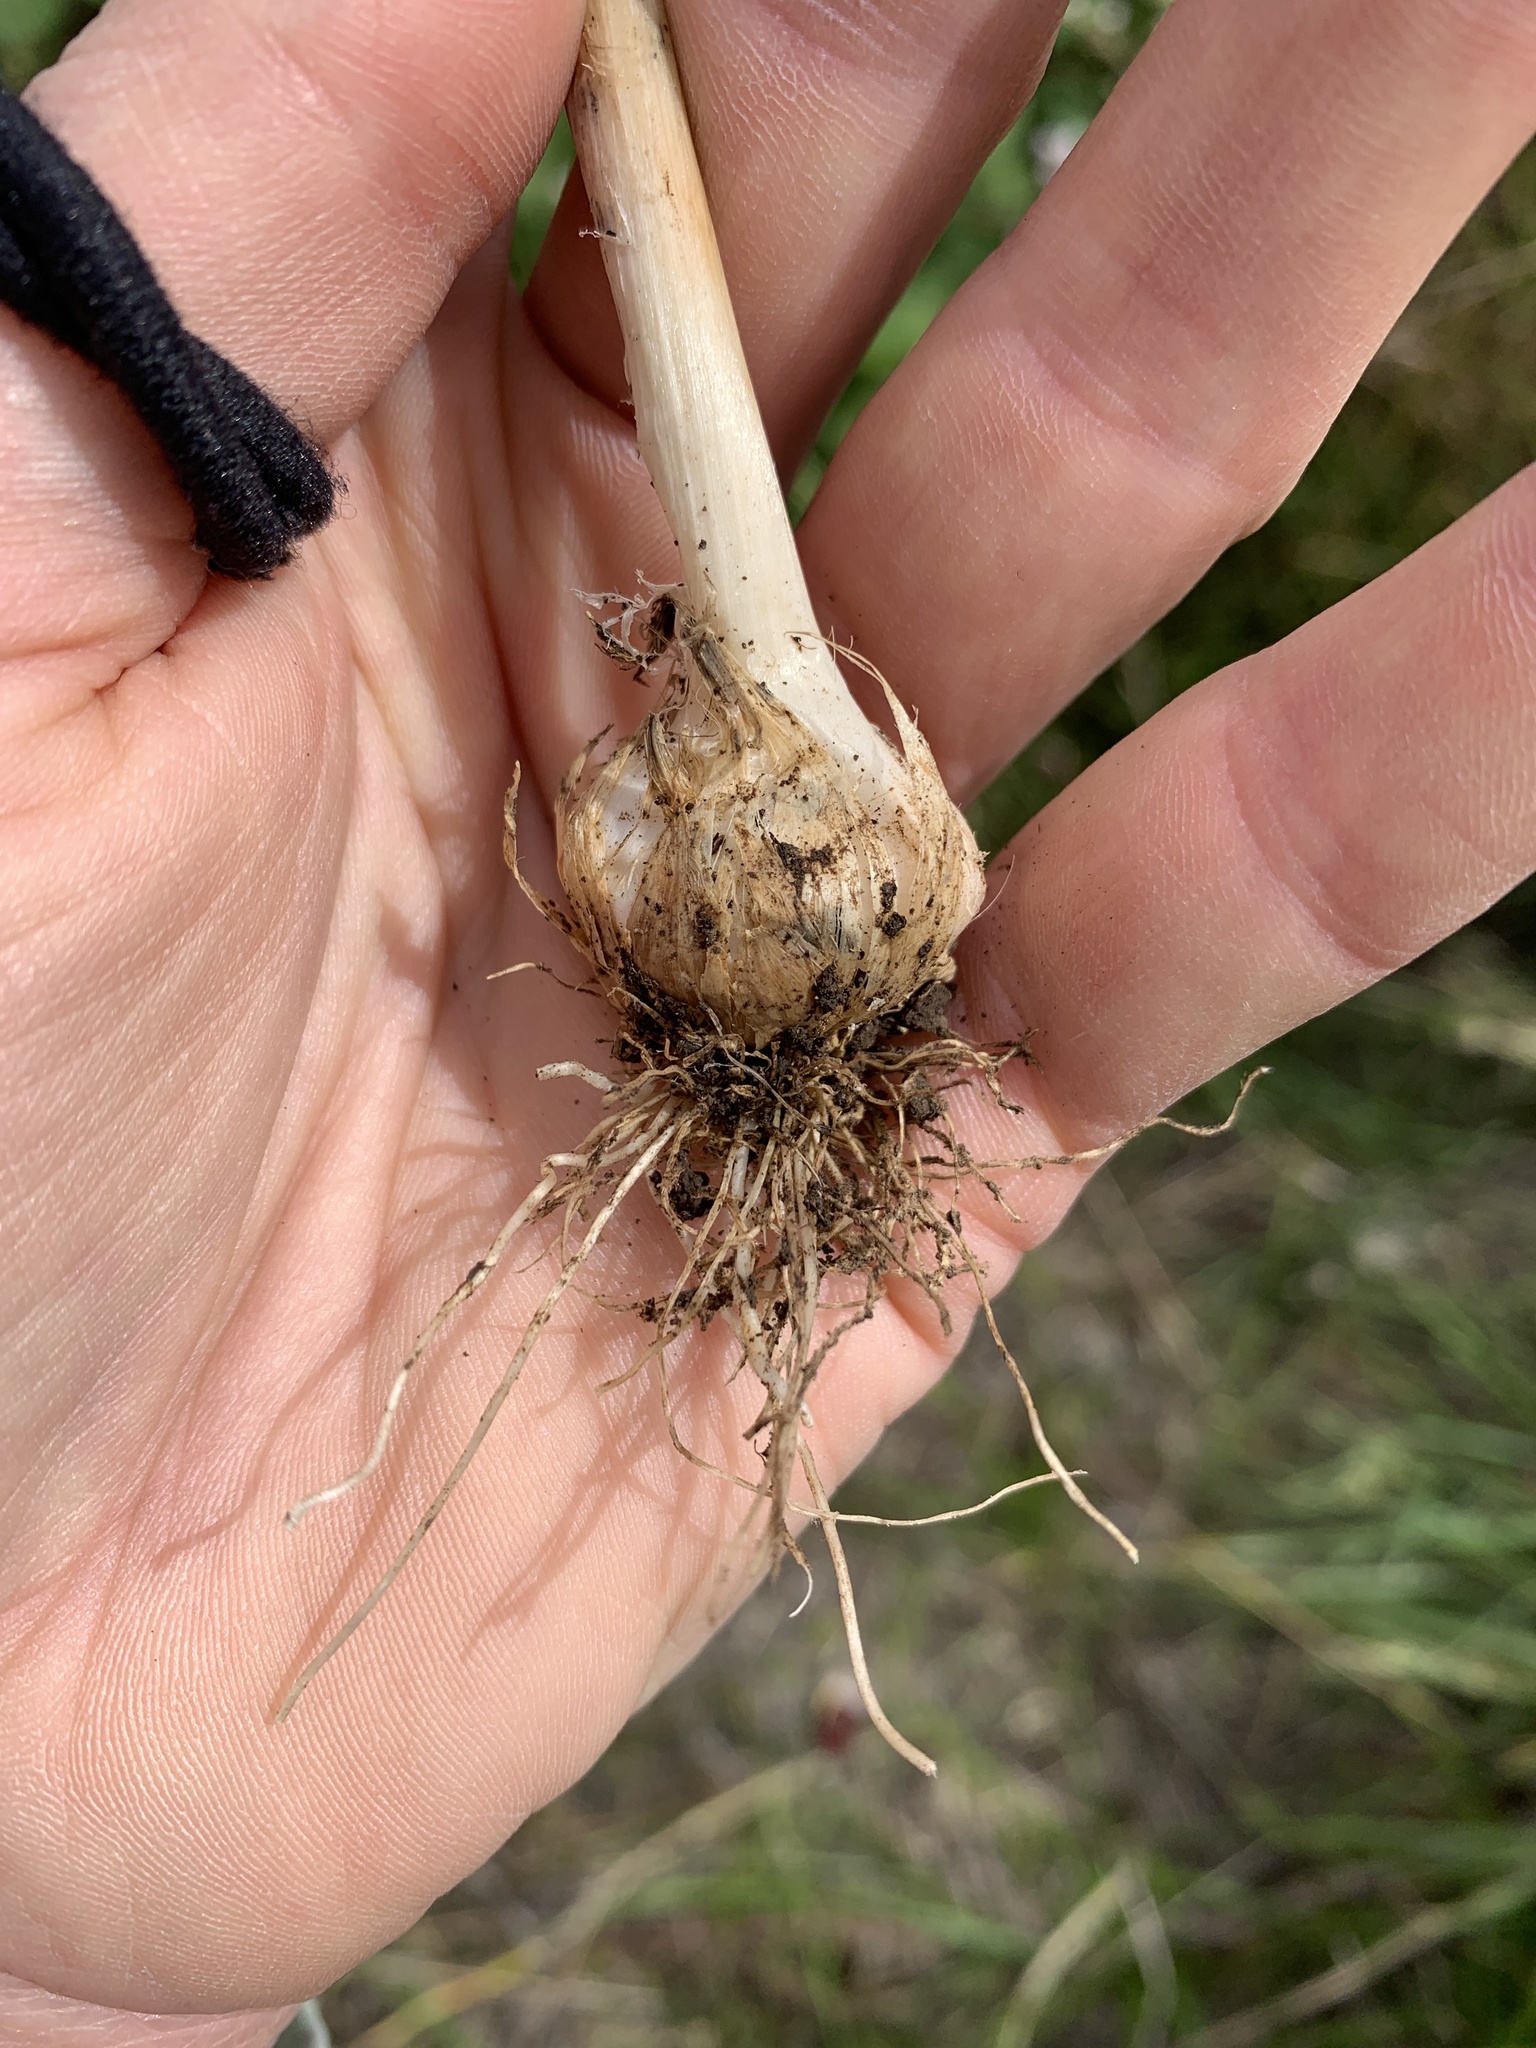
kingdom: Plantae
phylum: Tracheophyta
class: Liliopsida
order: Asparagales
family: Amaryllidaceae
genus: Allium
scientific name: Allium vineale
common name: Crow garlic
